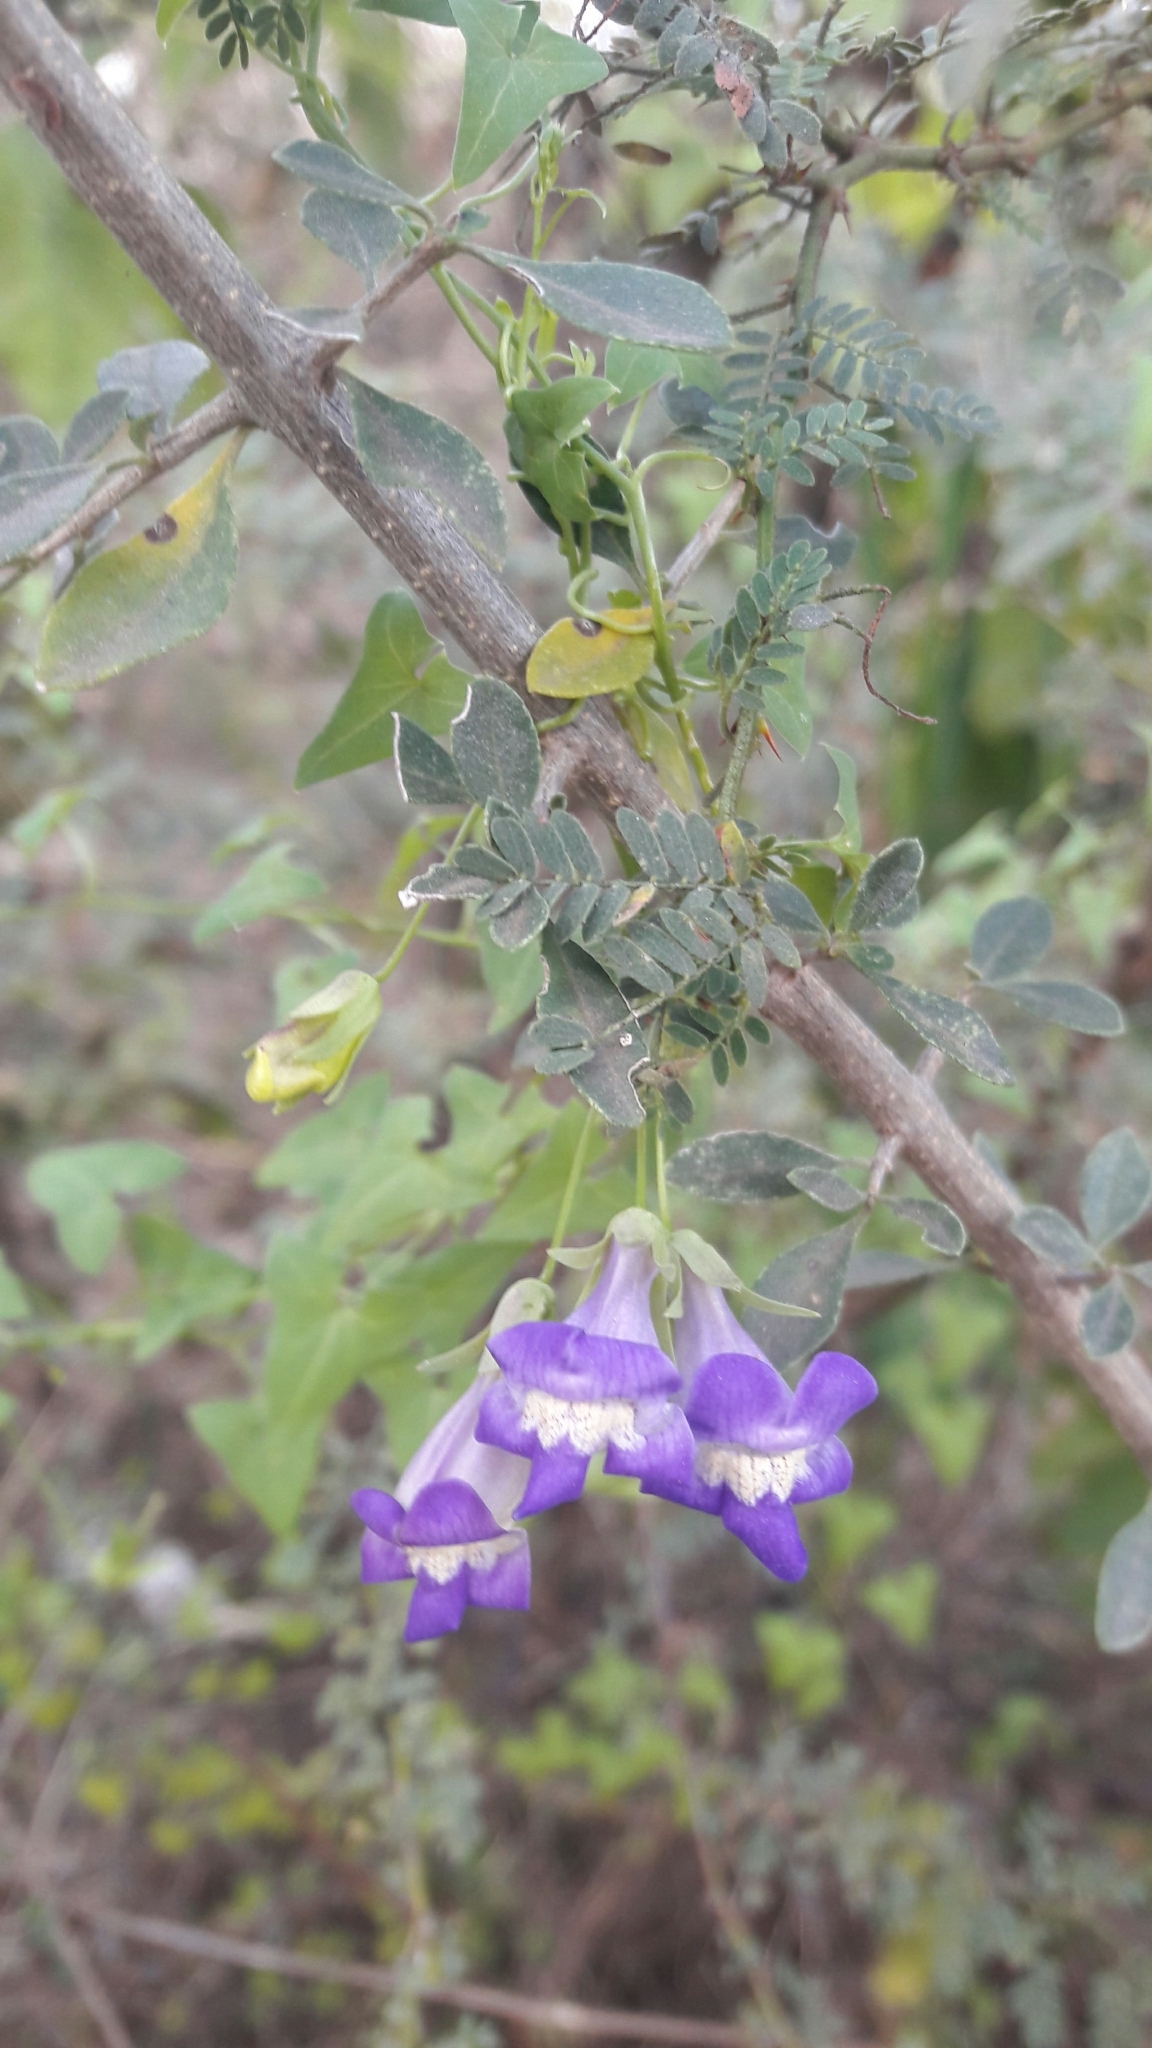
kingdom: Plantae
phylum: Tracheophyta
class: Magnoliopsida
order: Lamiales
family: Plantaginaceae
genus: Maurandella
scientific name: Maurandella antirrhiniflora
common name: Violet twining-snapdragon
